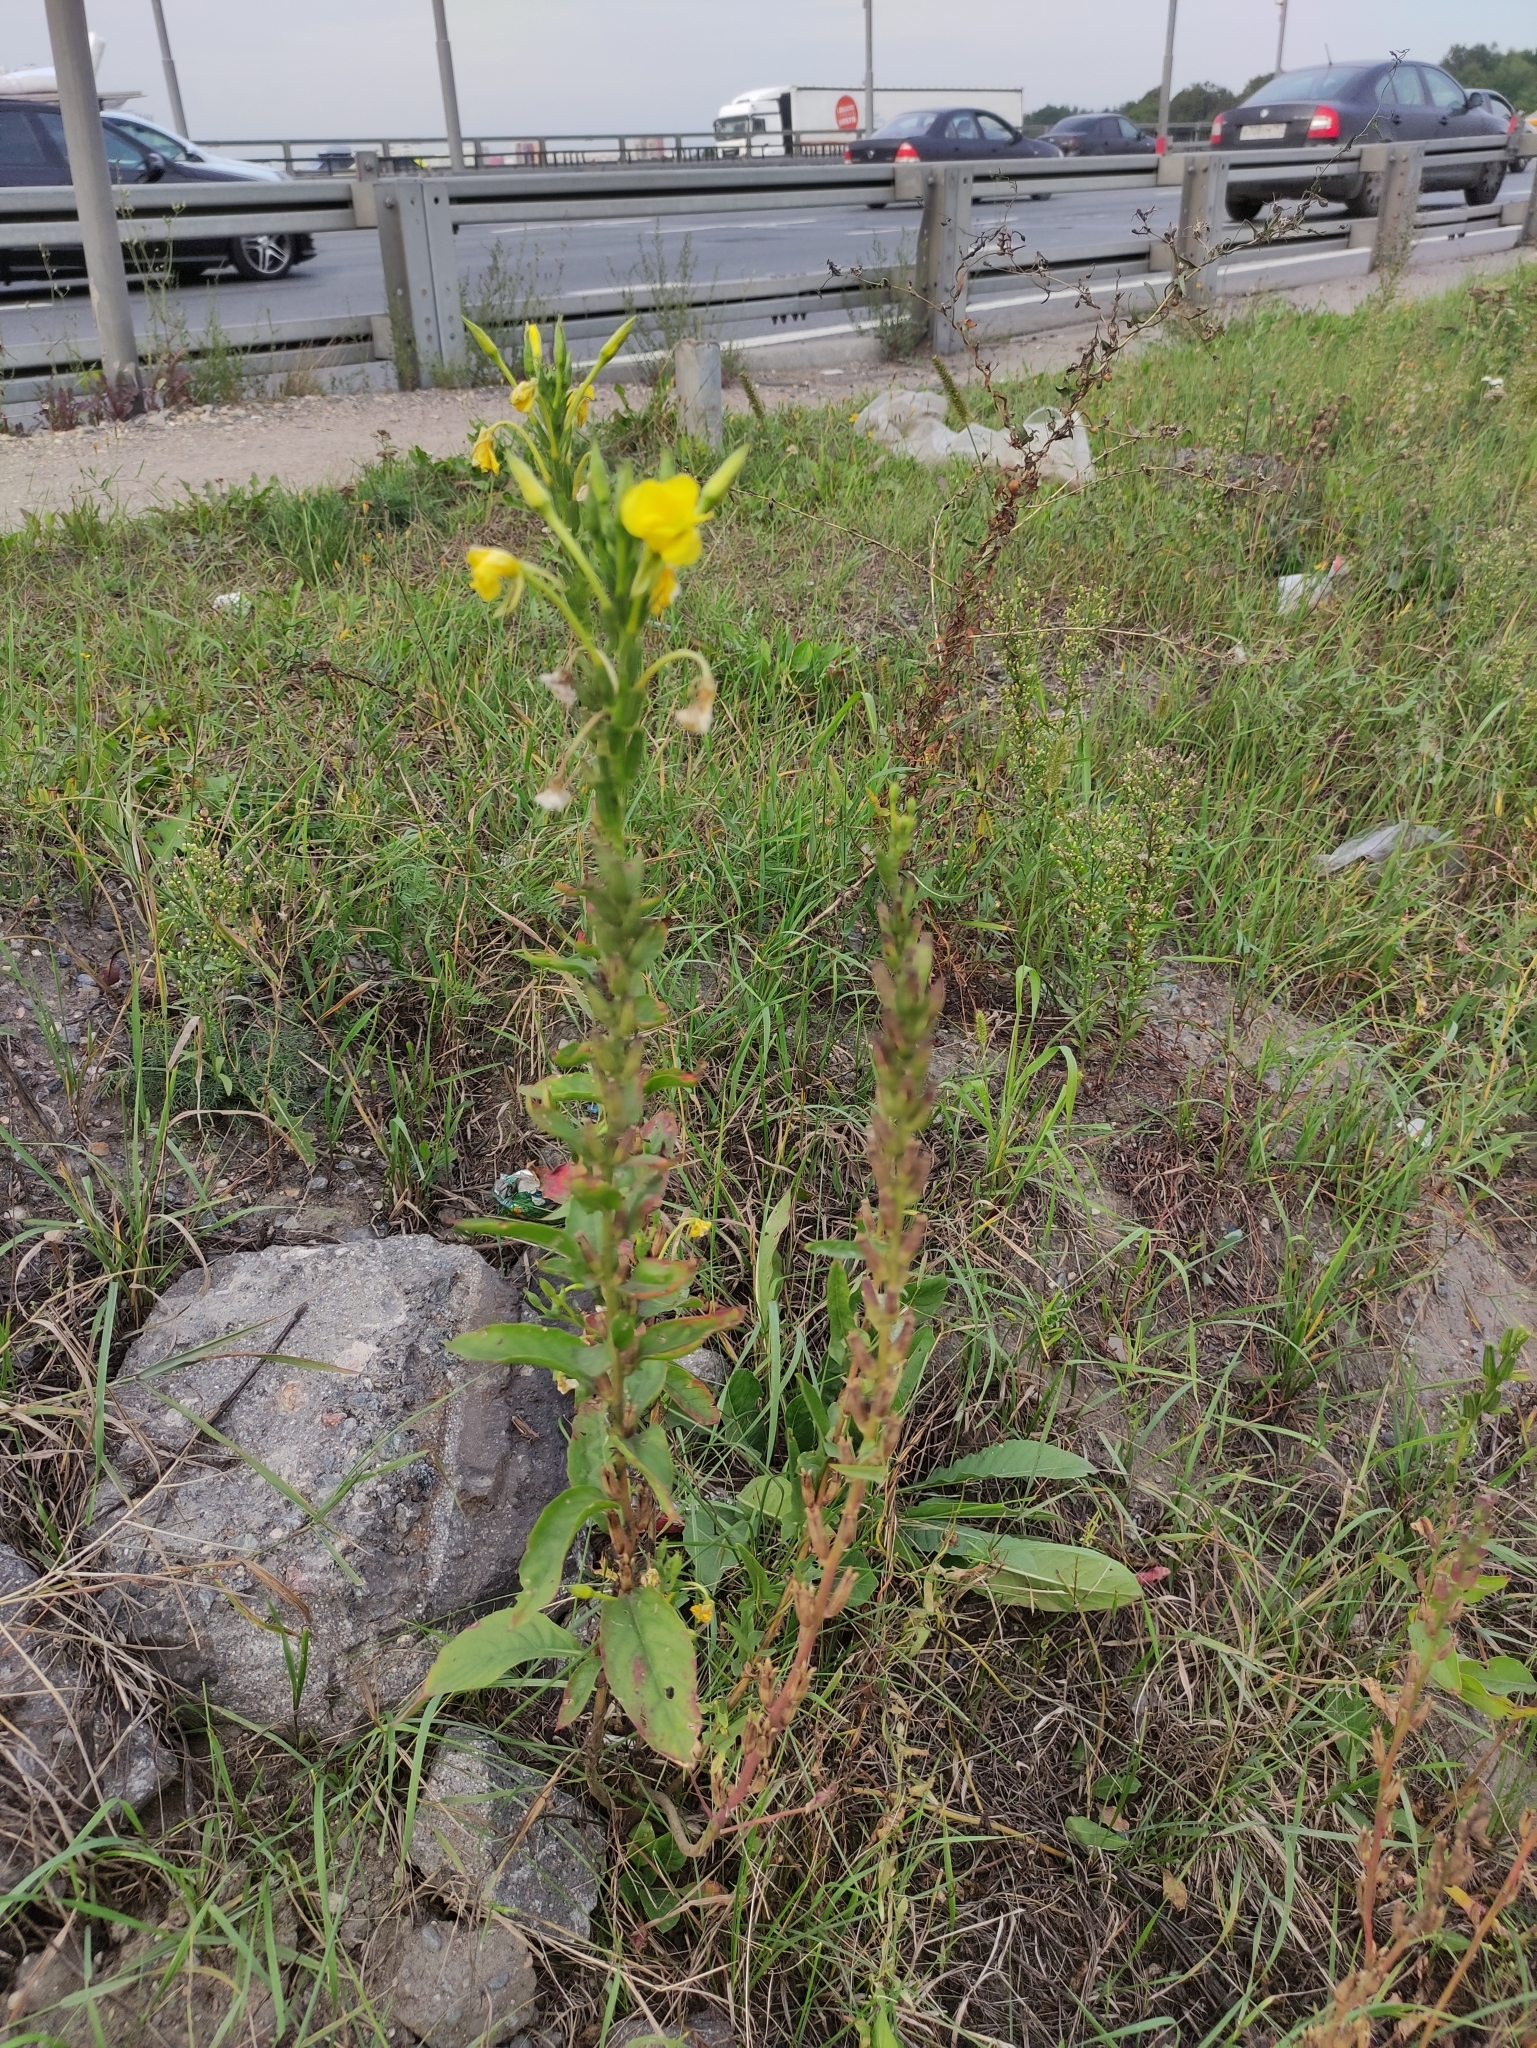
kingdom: Plantae
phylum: Tracheophyta
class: Magnoliopsida
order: Myrtales
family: Onagraceae
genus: Oenothera
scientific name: Oenothera biennis
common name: Common evening-primrose
